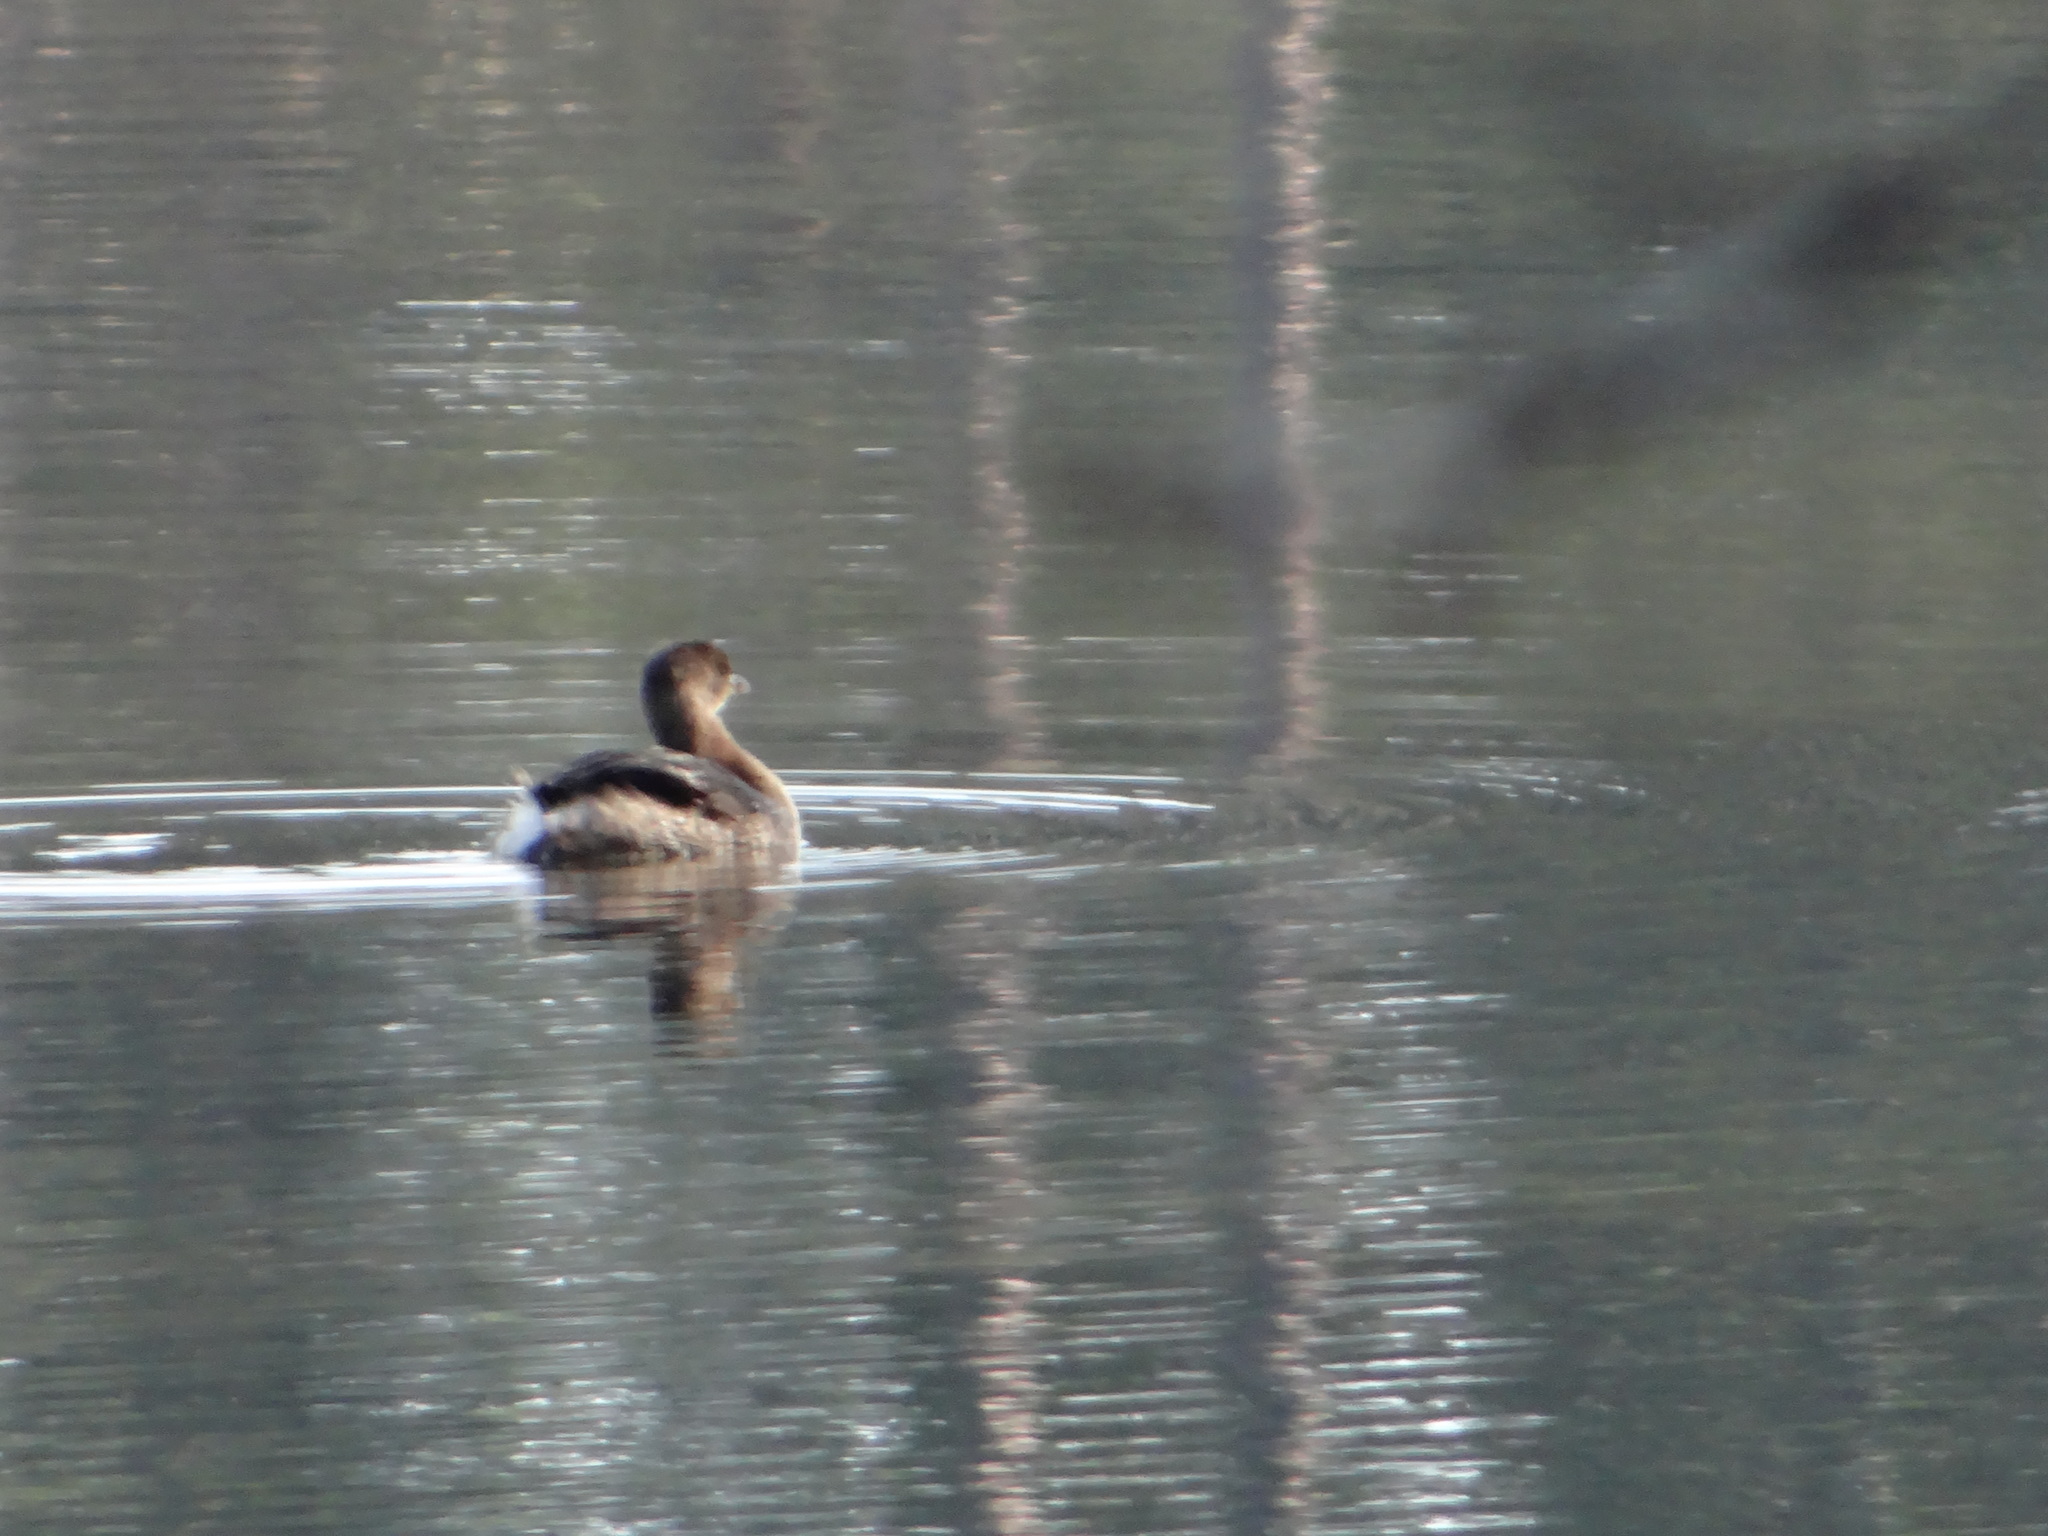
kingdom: Animalia
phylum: Chordata
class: Aves
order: Podicipediformes
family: Podicipedidae
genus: Podilymbus
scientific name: Podilymbus podiceps
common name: Pied-billed grebe
